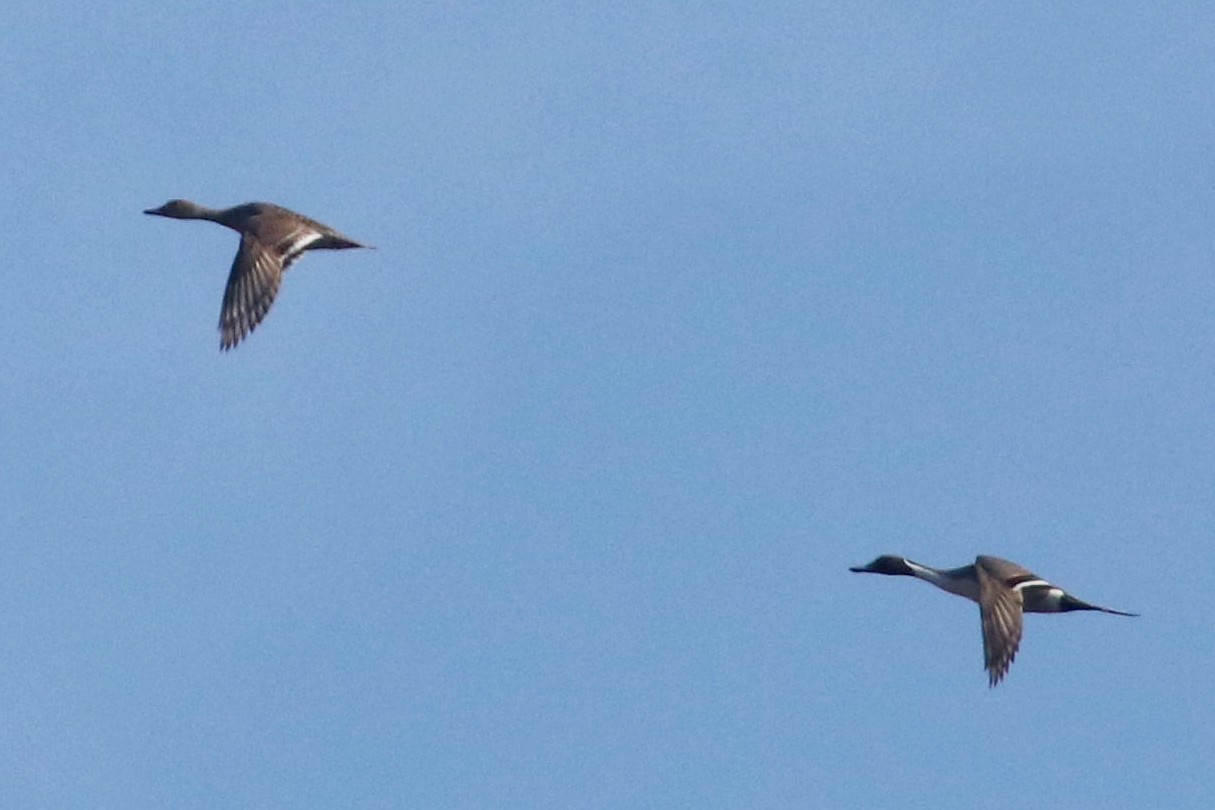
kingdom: Animalia
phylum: Chordata
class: Aves
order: Anseriformes
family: Anatidae
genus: Anas
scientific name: Anas acuta
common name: Northern pintail
